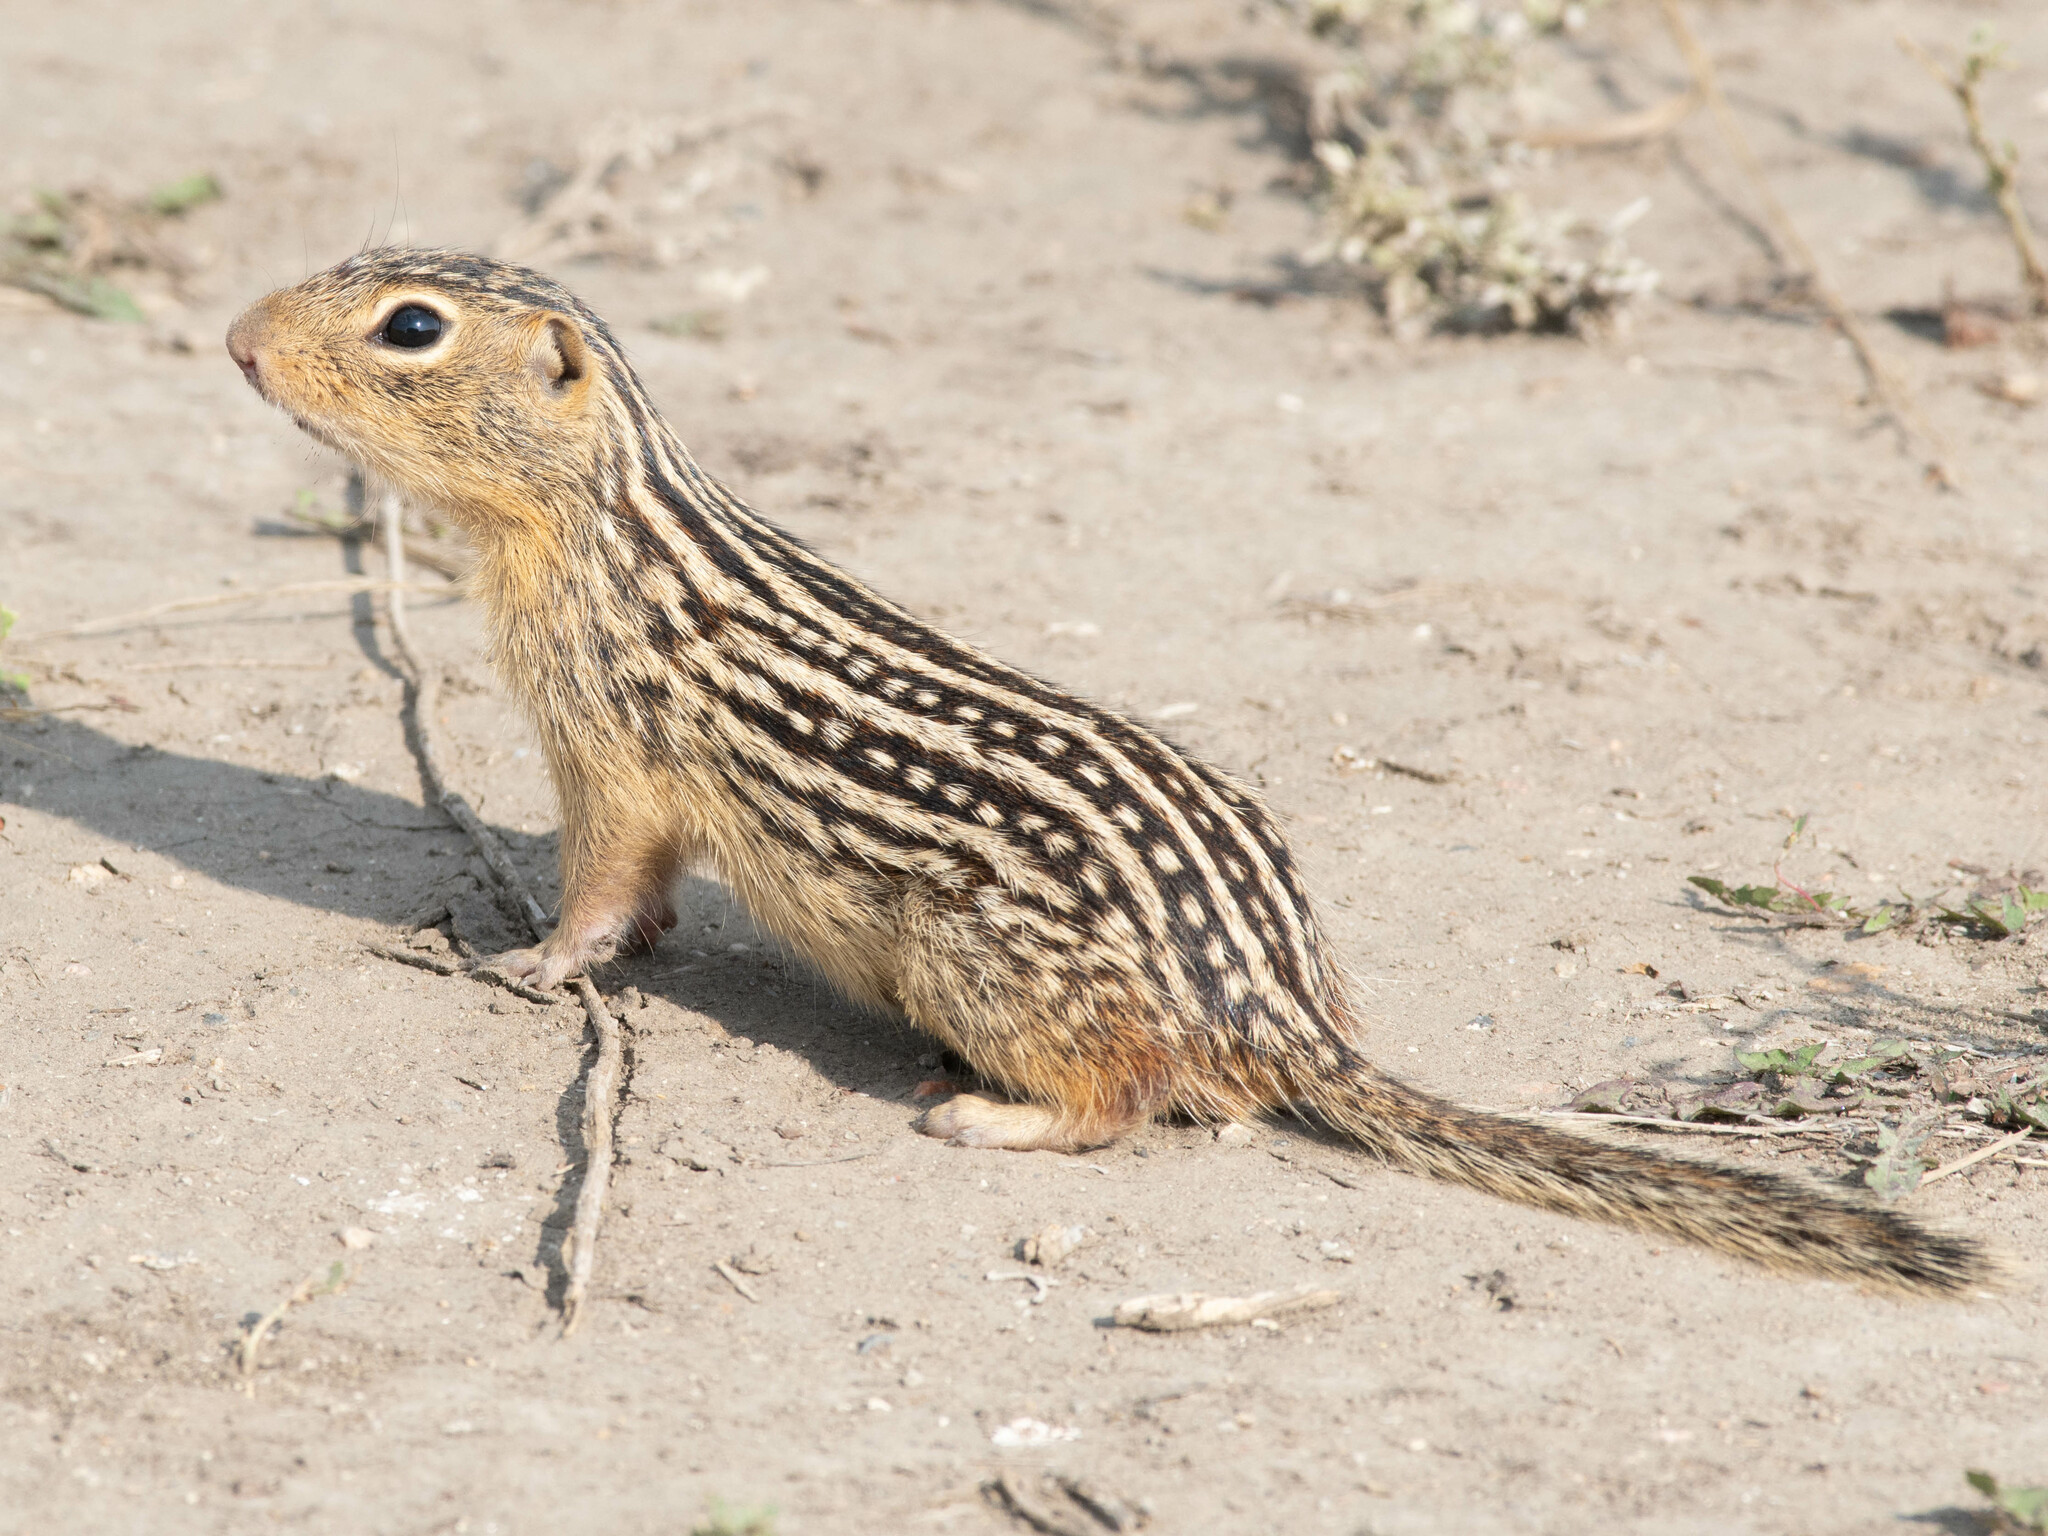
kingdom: Animalia
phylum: Chordata
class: Mammalia
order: Rodentia
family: Sciuridae
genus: Ictidomys
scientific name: Ictidomys tridecemlineatus
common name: Thirteen-lined ground squirrel
